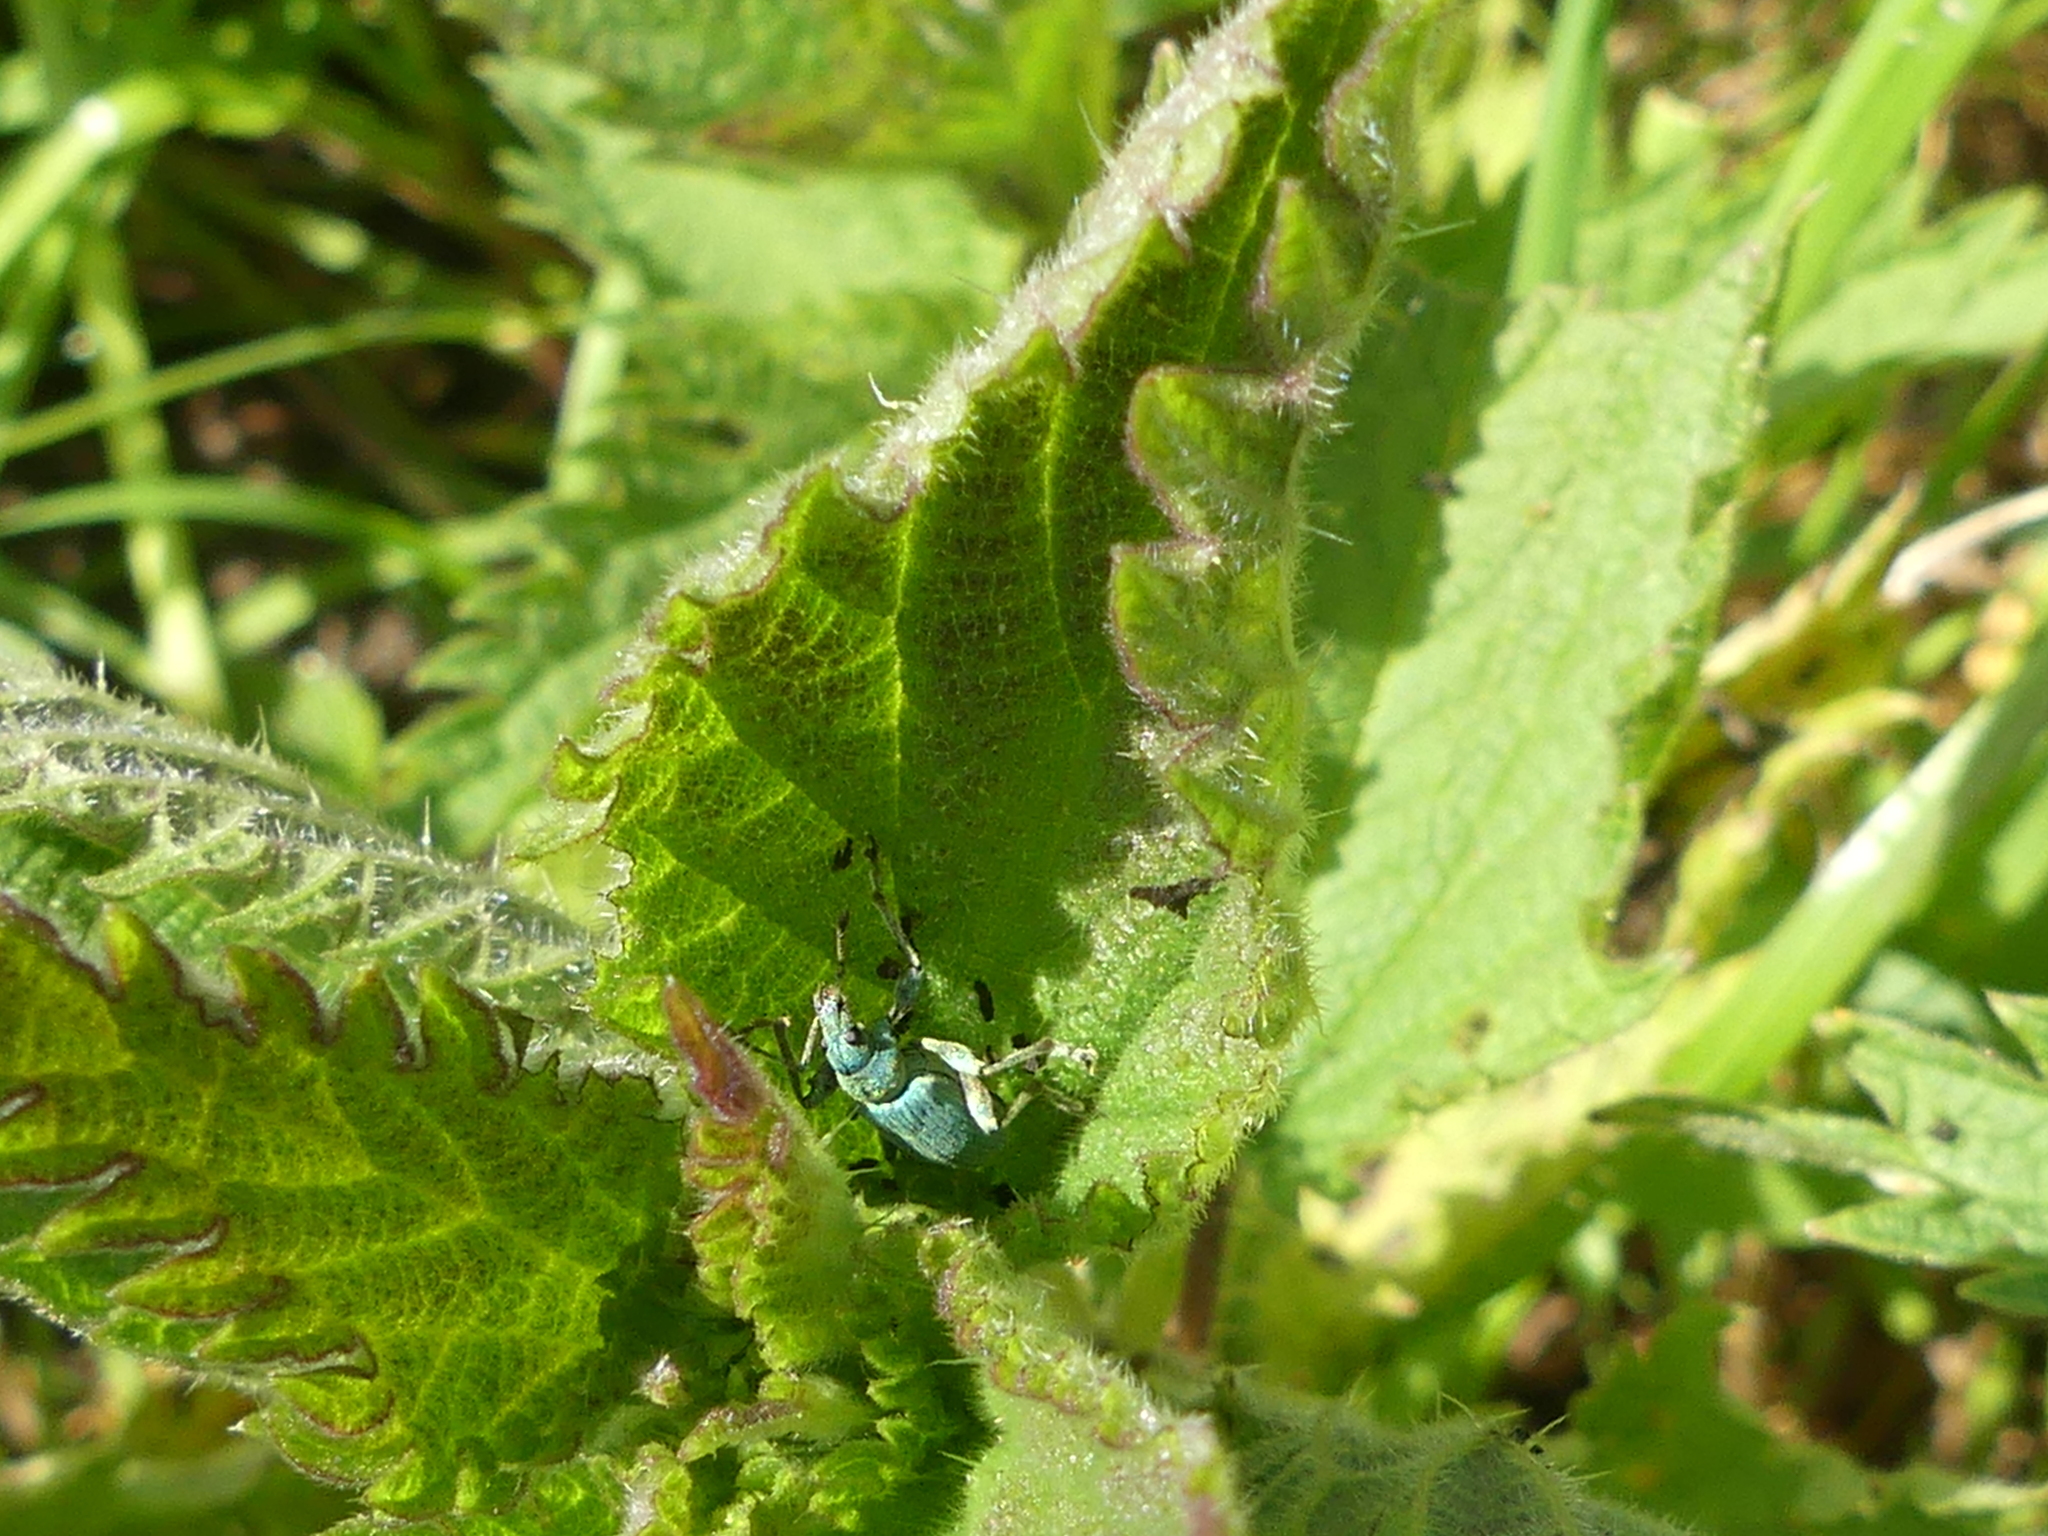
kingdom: Animalia
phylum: Arthropoda
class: Insecta
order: Coleoptera
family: Curculionidae
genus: Phyllobius
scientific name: Phyllobius pomaceus
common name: Green nettle weevil
